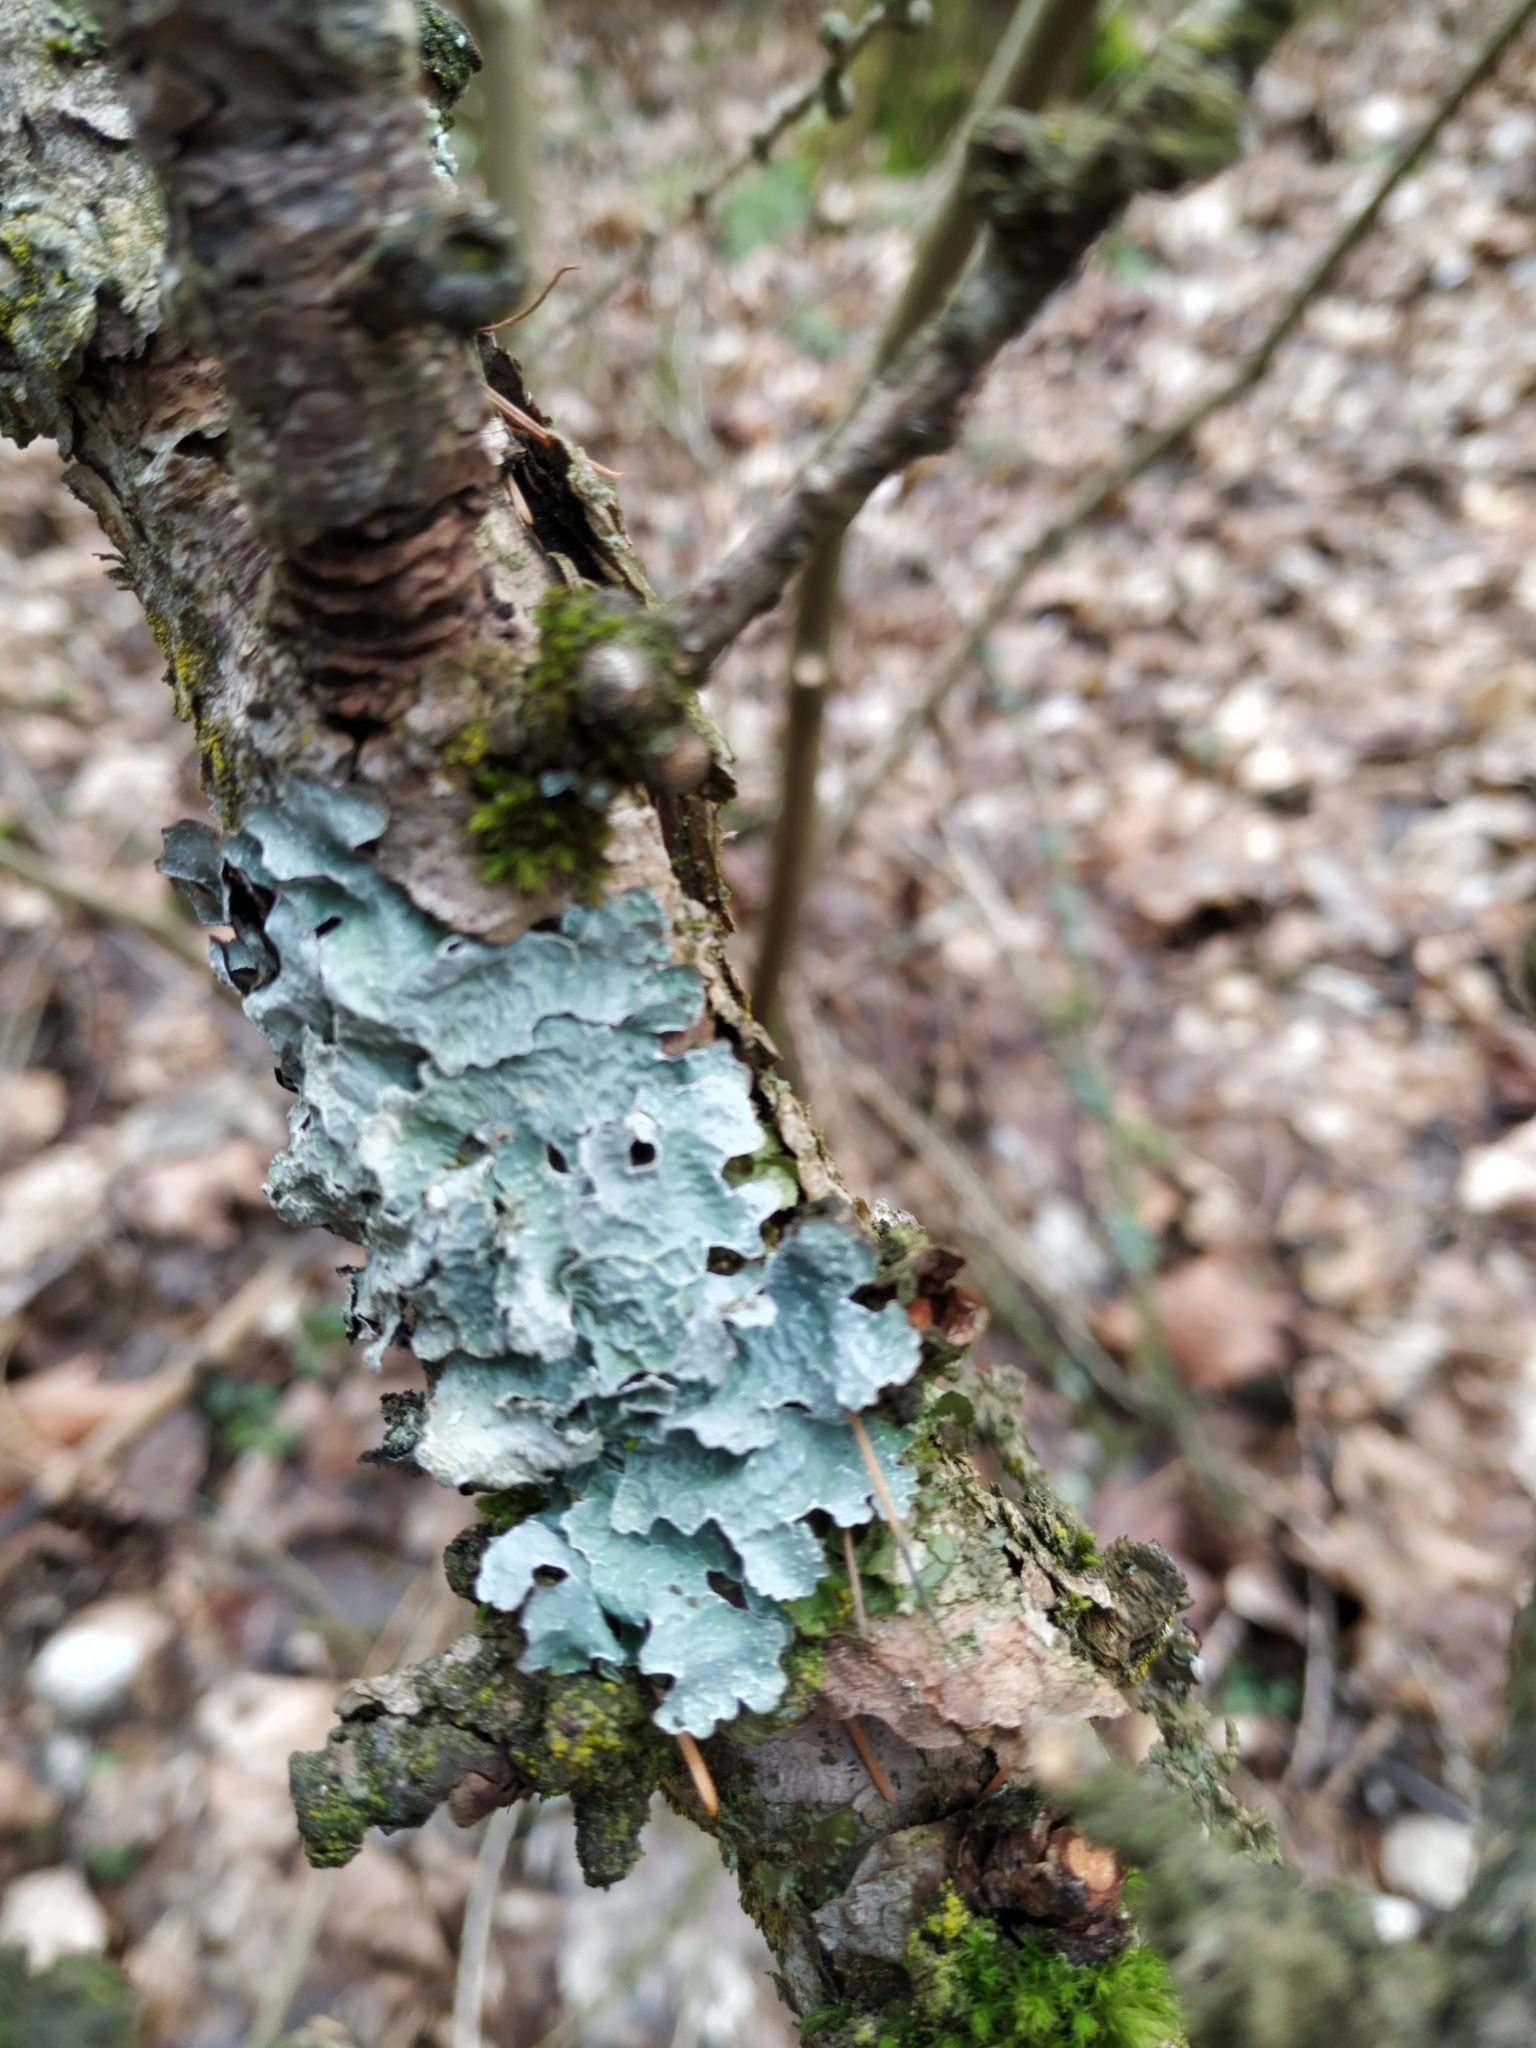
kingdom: Fungi
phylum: Ascomycota
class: Lecanoromycetes
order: Lecanorales
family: Parmeliaceae
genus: Parmelia
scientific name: Parmelia sulcata
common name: Netted shield lichen
